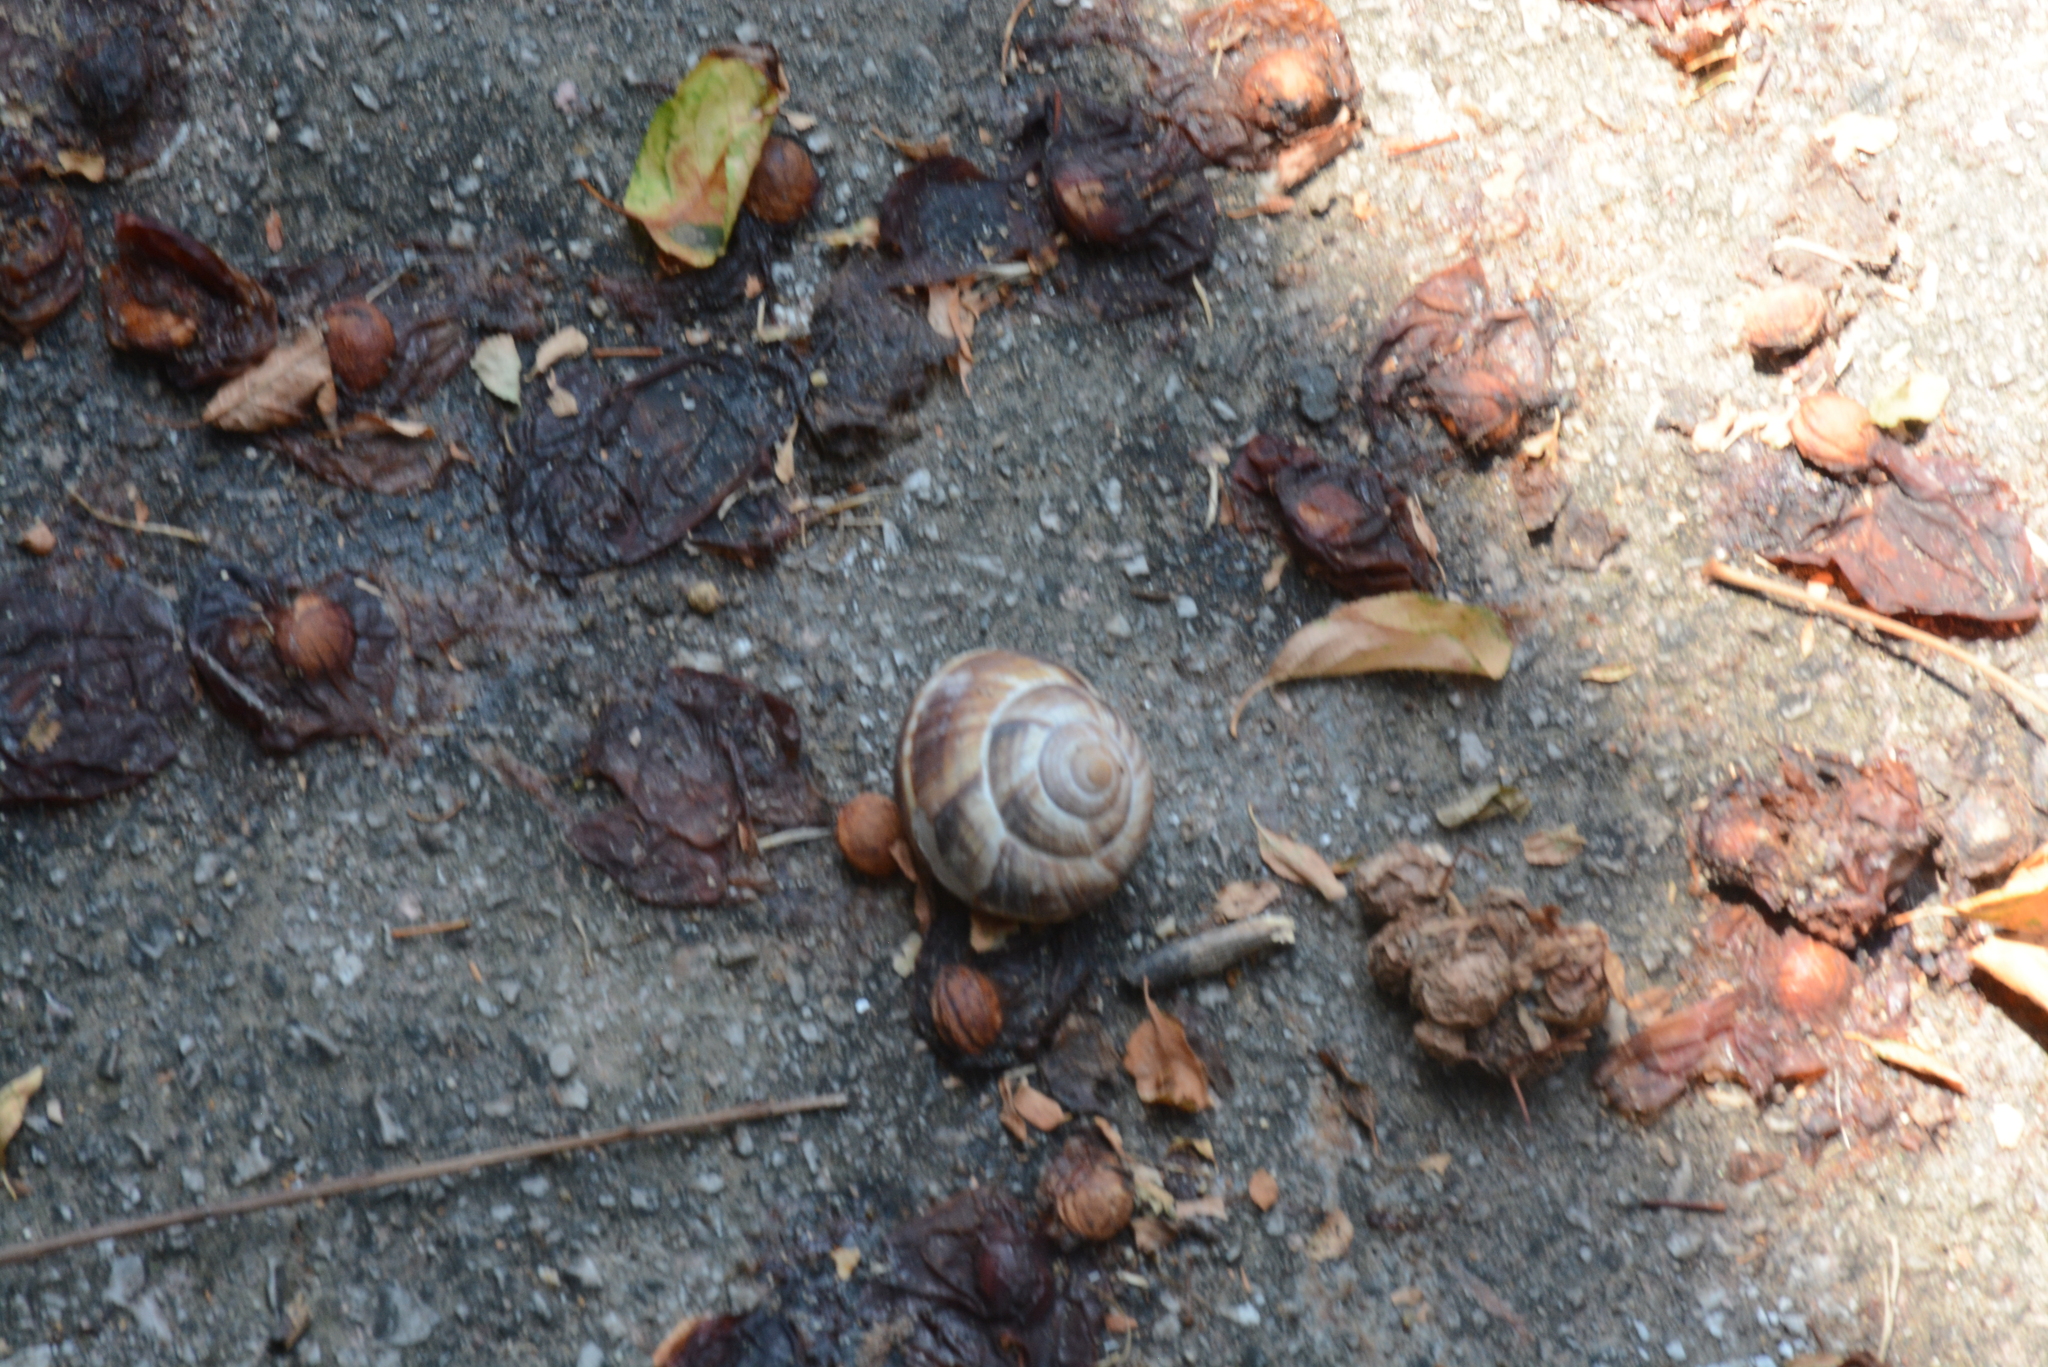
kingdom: Animalia
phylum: Mollusca
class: Gastropoda
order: Stylommatophora
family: Helicidae
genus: Helix
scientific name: Helix lucorum
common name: Turkish snail
